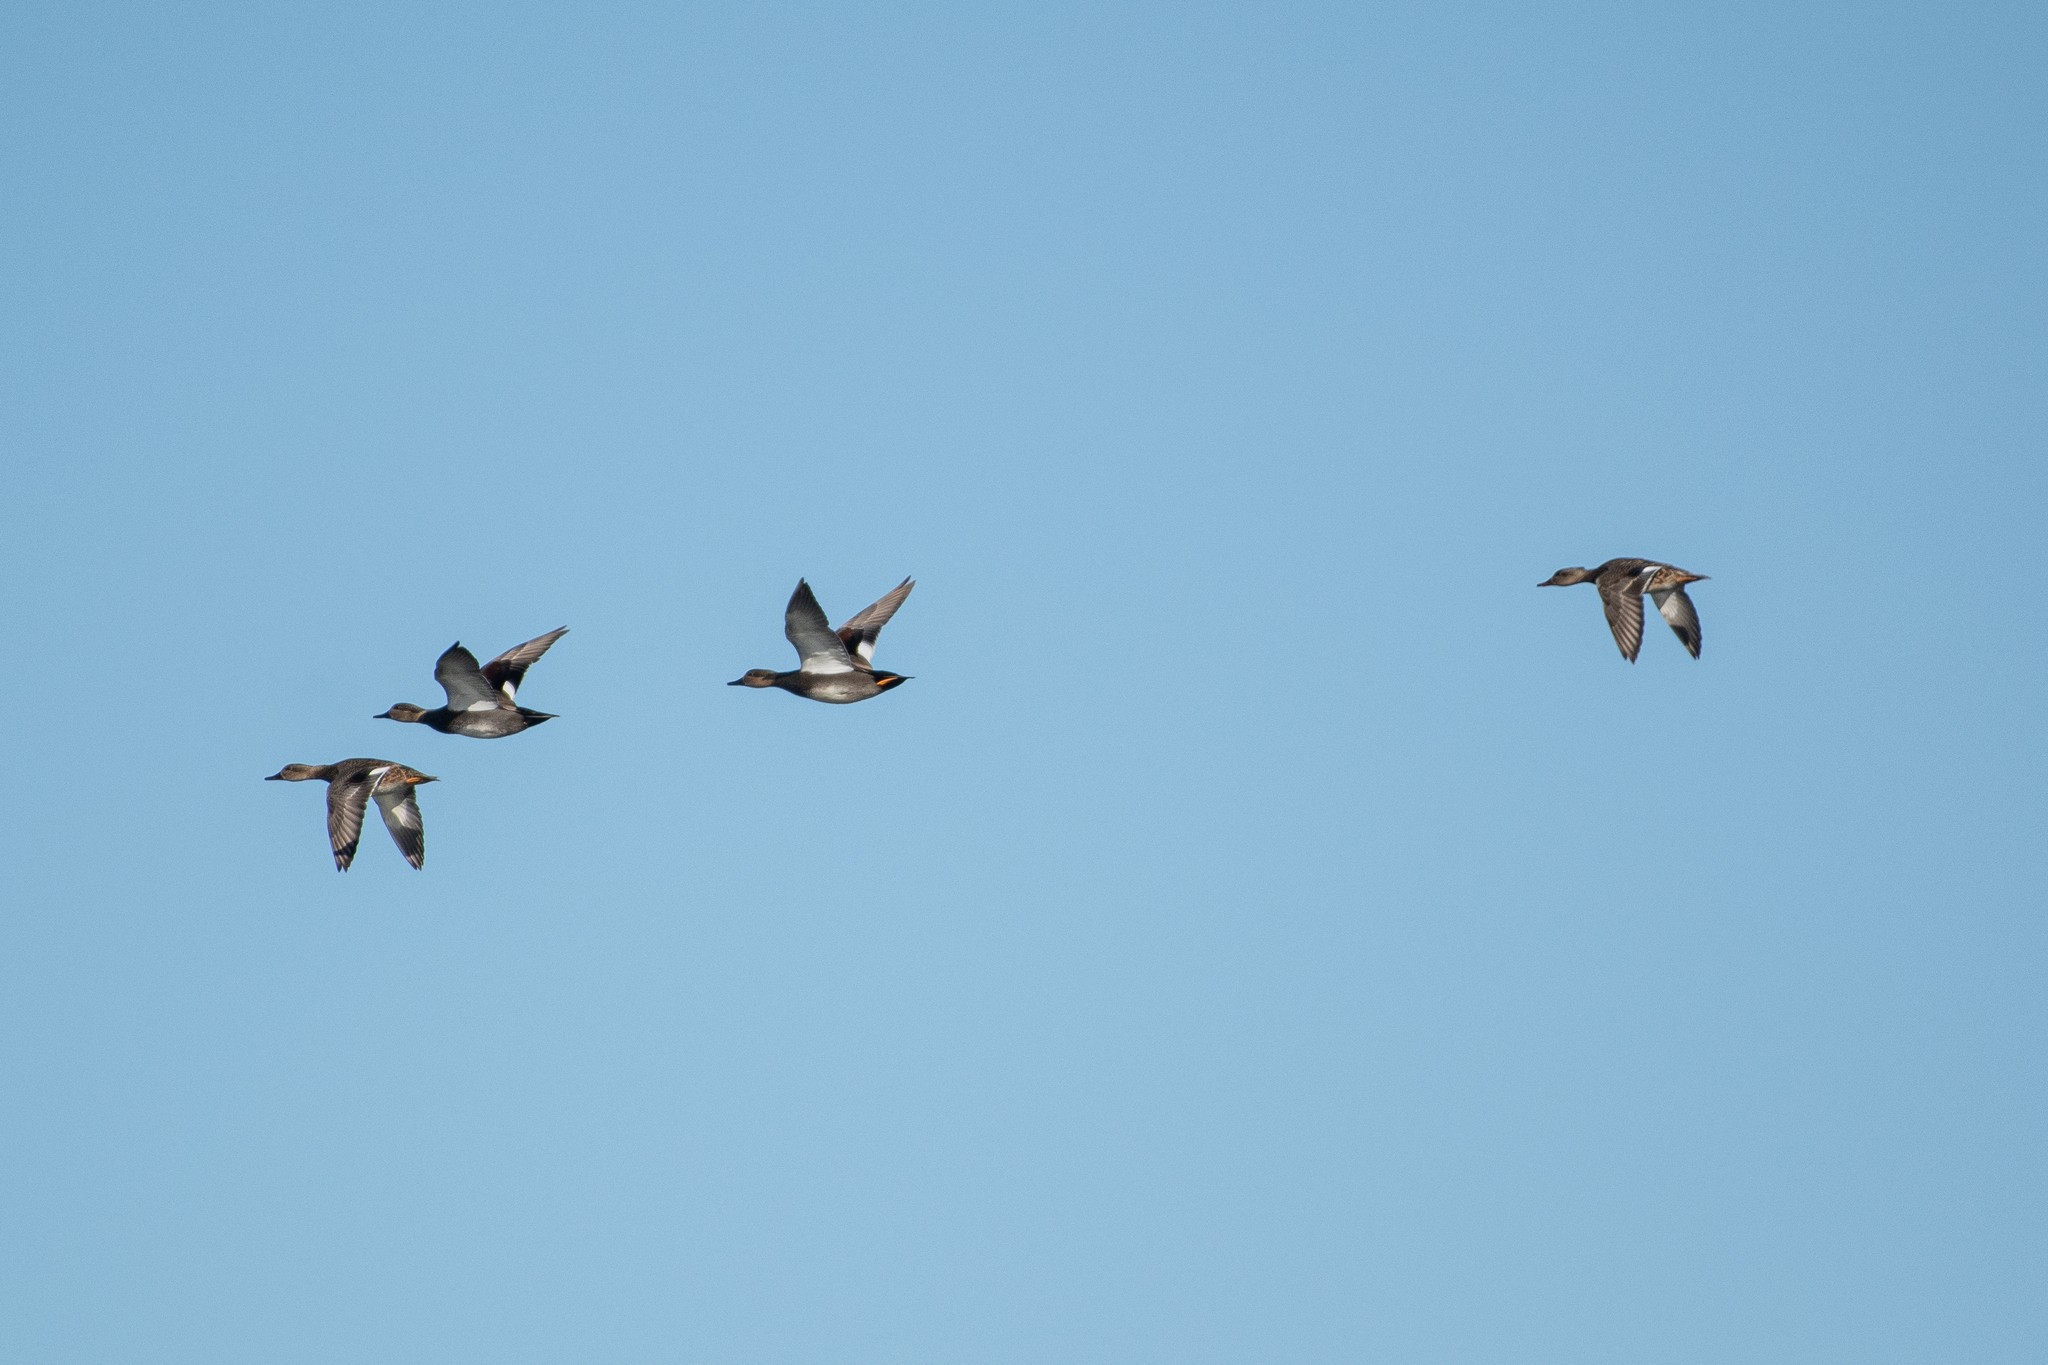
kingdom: Animalia
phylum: Chordata
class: Aves
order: Anseriformes
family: Anatidae
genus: Mareca
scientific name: Mareca strepera
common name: Gadwall
